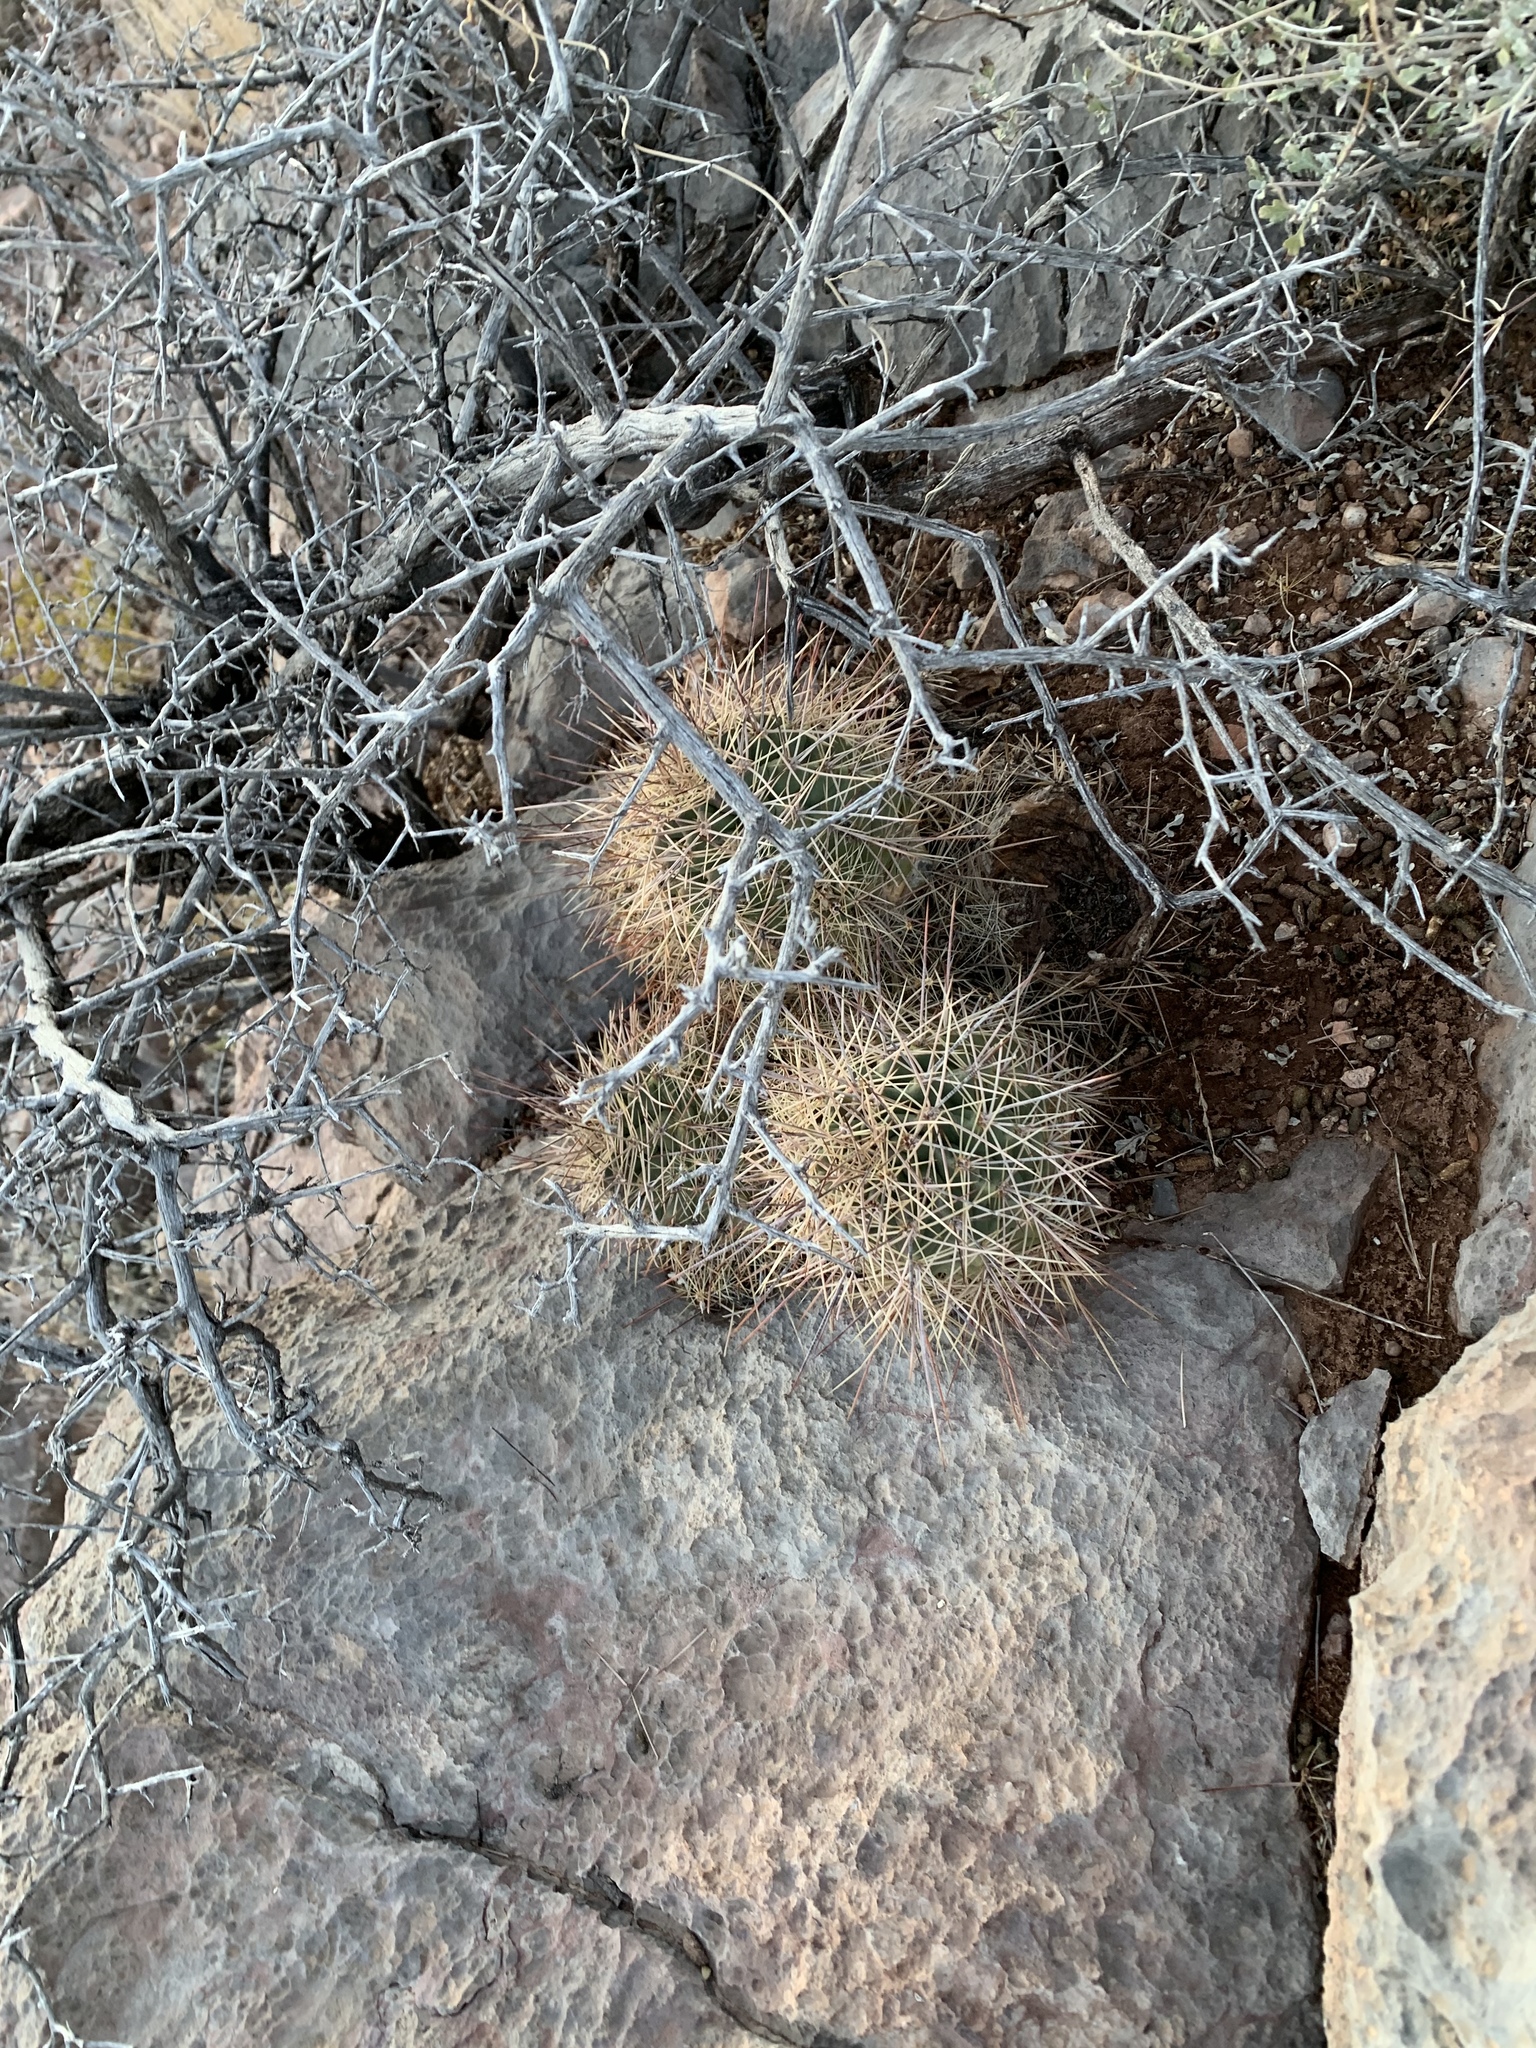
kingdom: Plantae
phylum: Tracheophyta
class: Magnoliopsida
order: Caryophyllales
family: Cactaceae
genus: Echinocereus
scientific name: Echinocereus coccineus
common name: Scarlet hedgehog cactus
